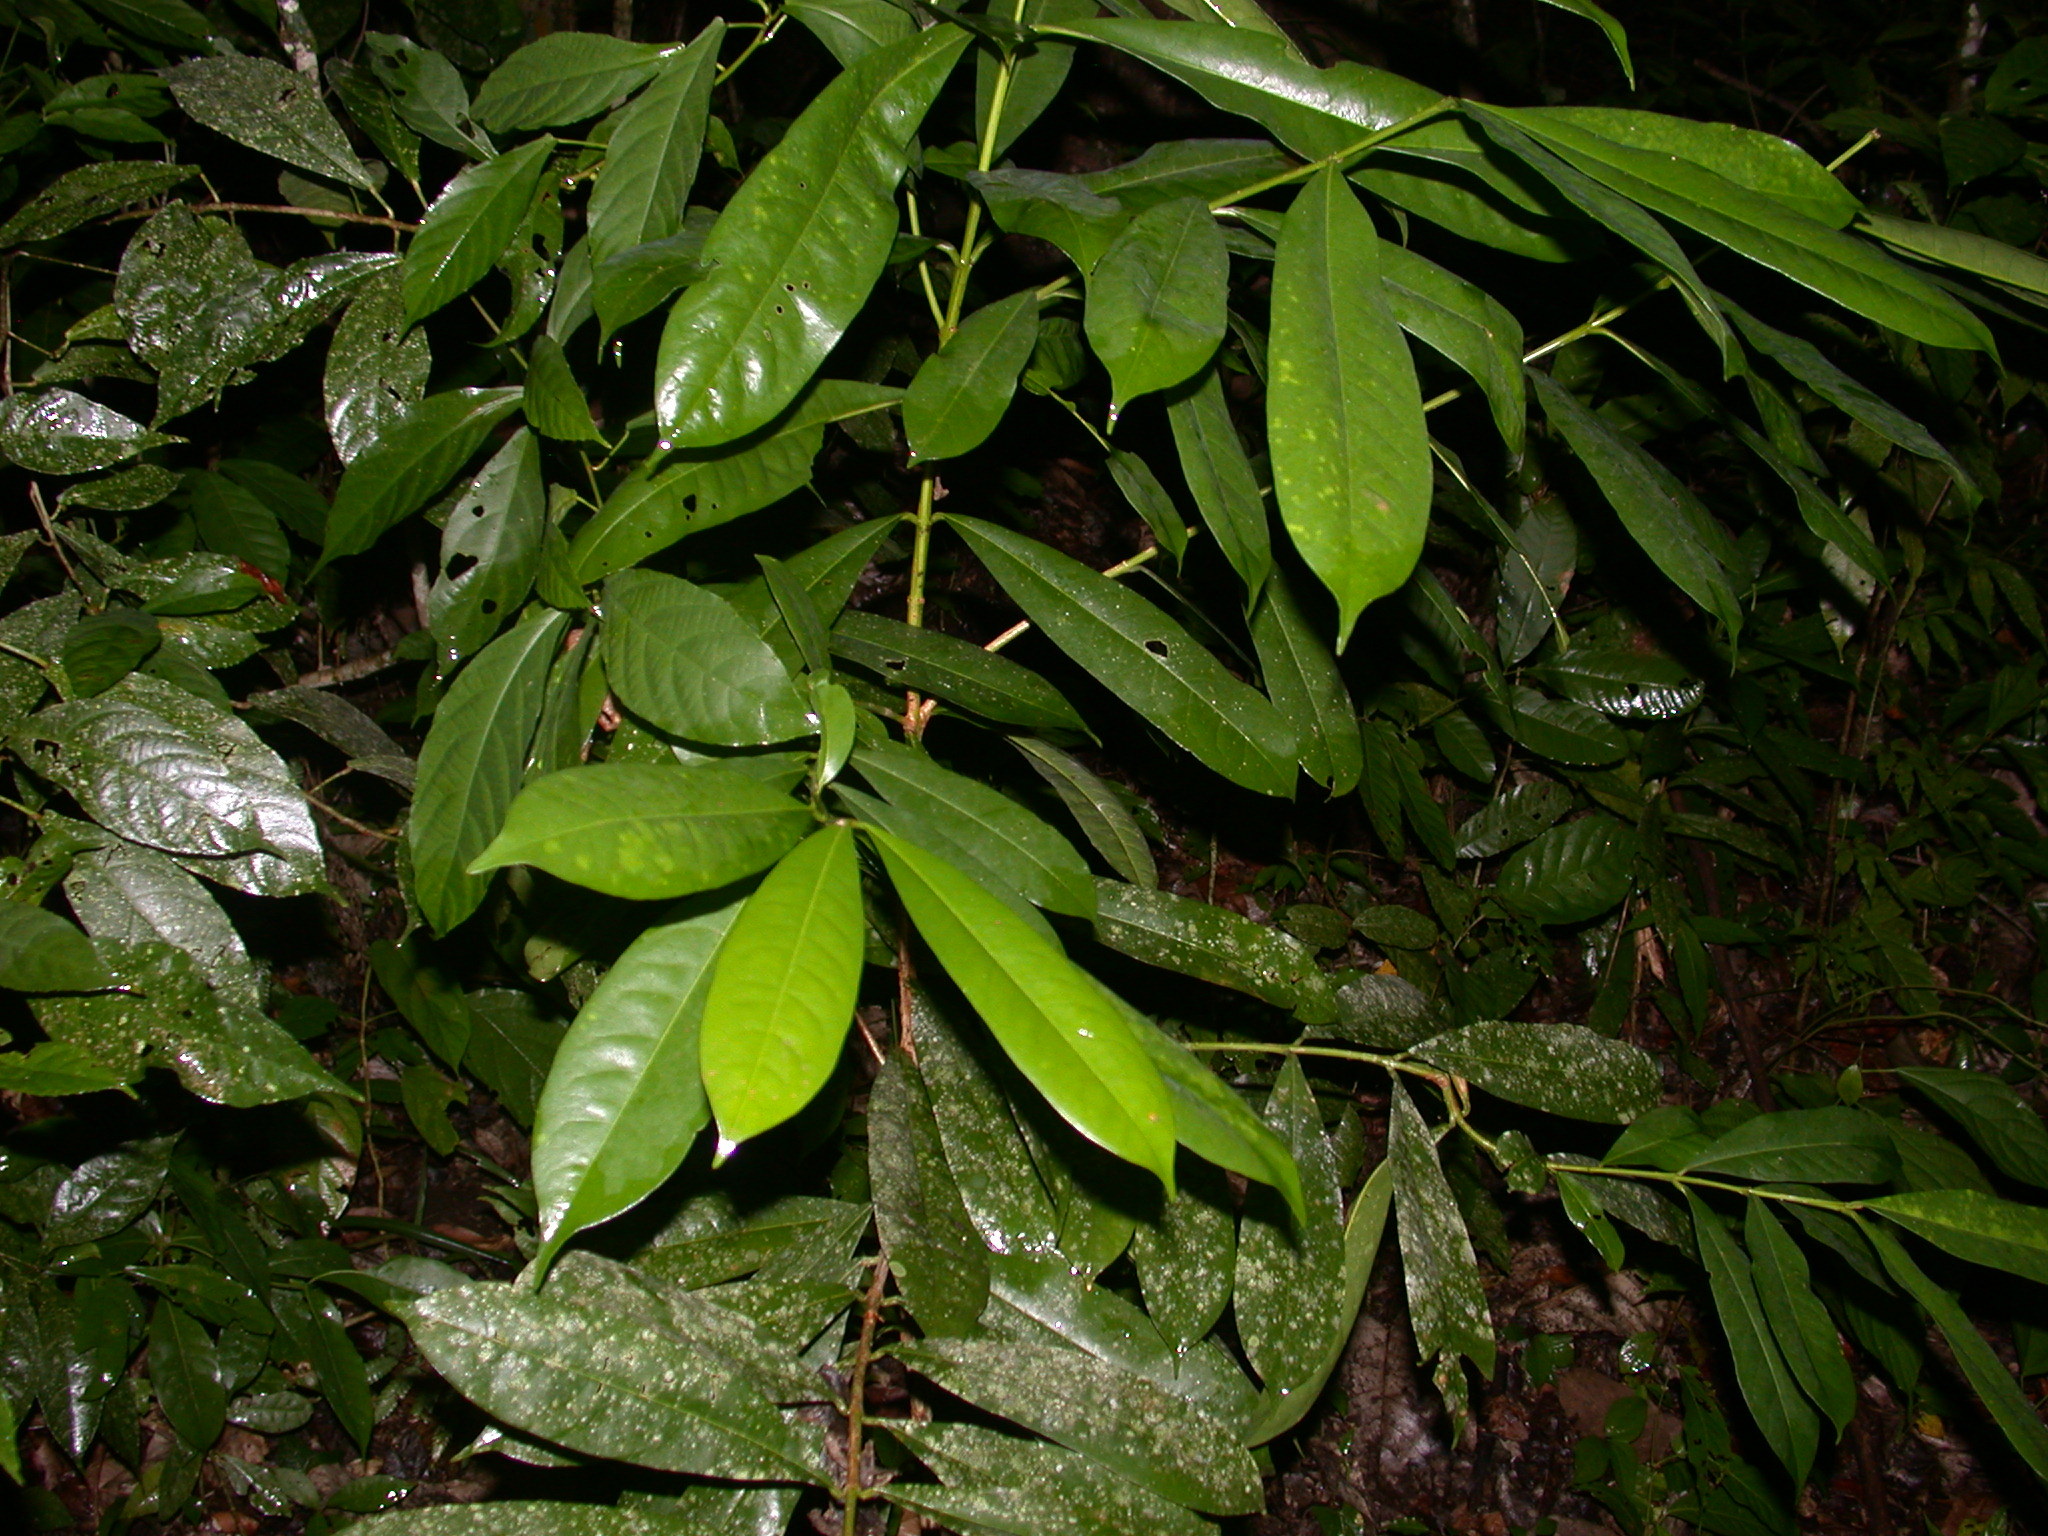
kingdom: Plantae
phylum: Tracheophyta
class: Magnoliopsida
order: Myrtales
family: Vochysiaceae
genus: Vochysia
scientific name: Vochysia guatemalensis
